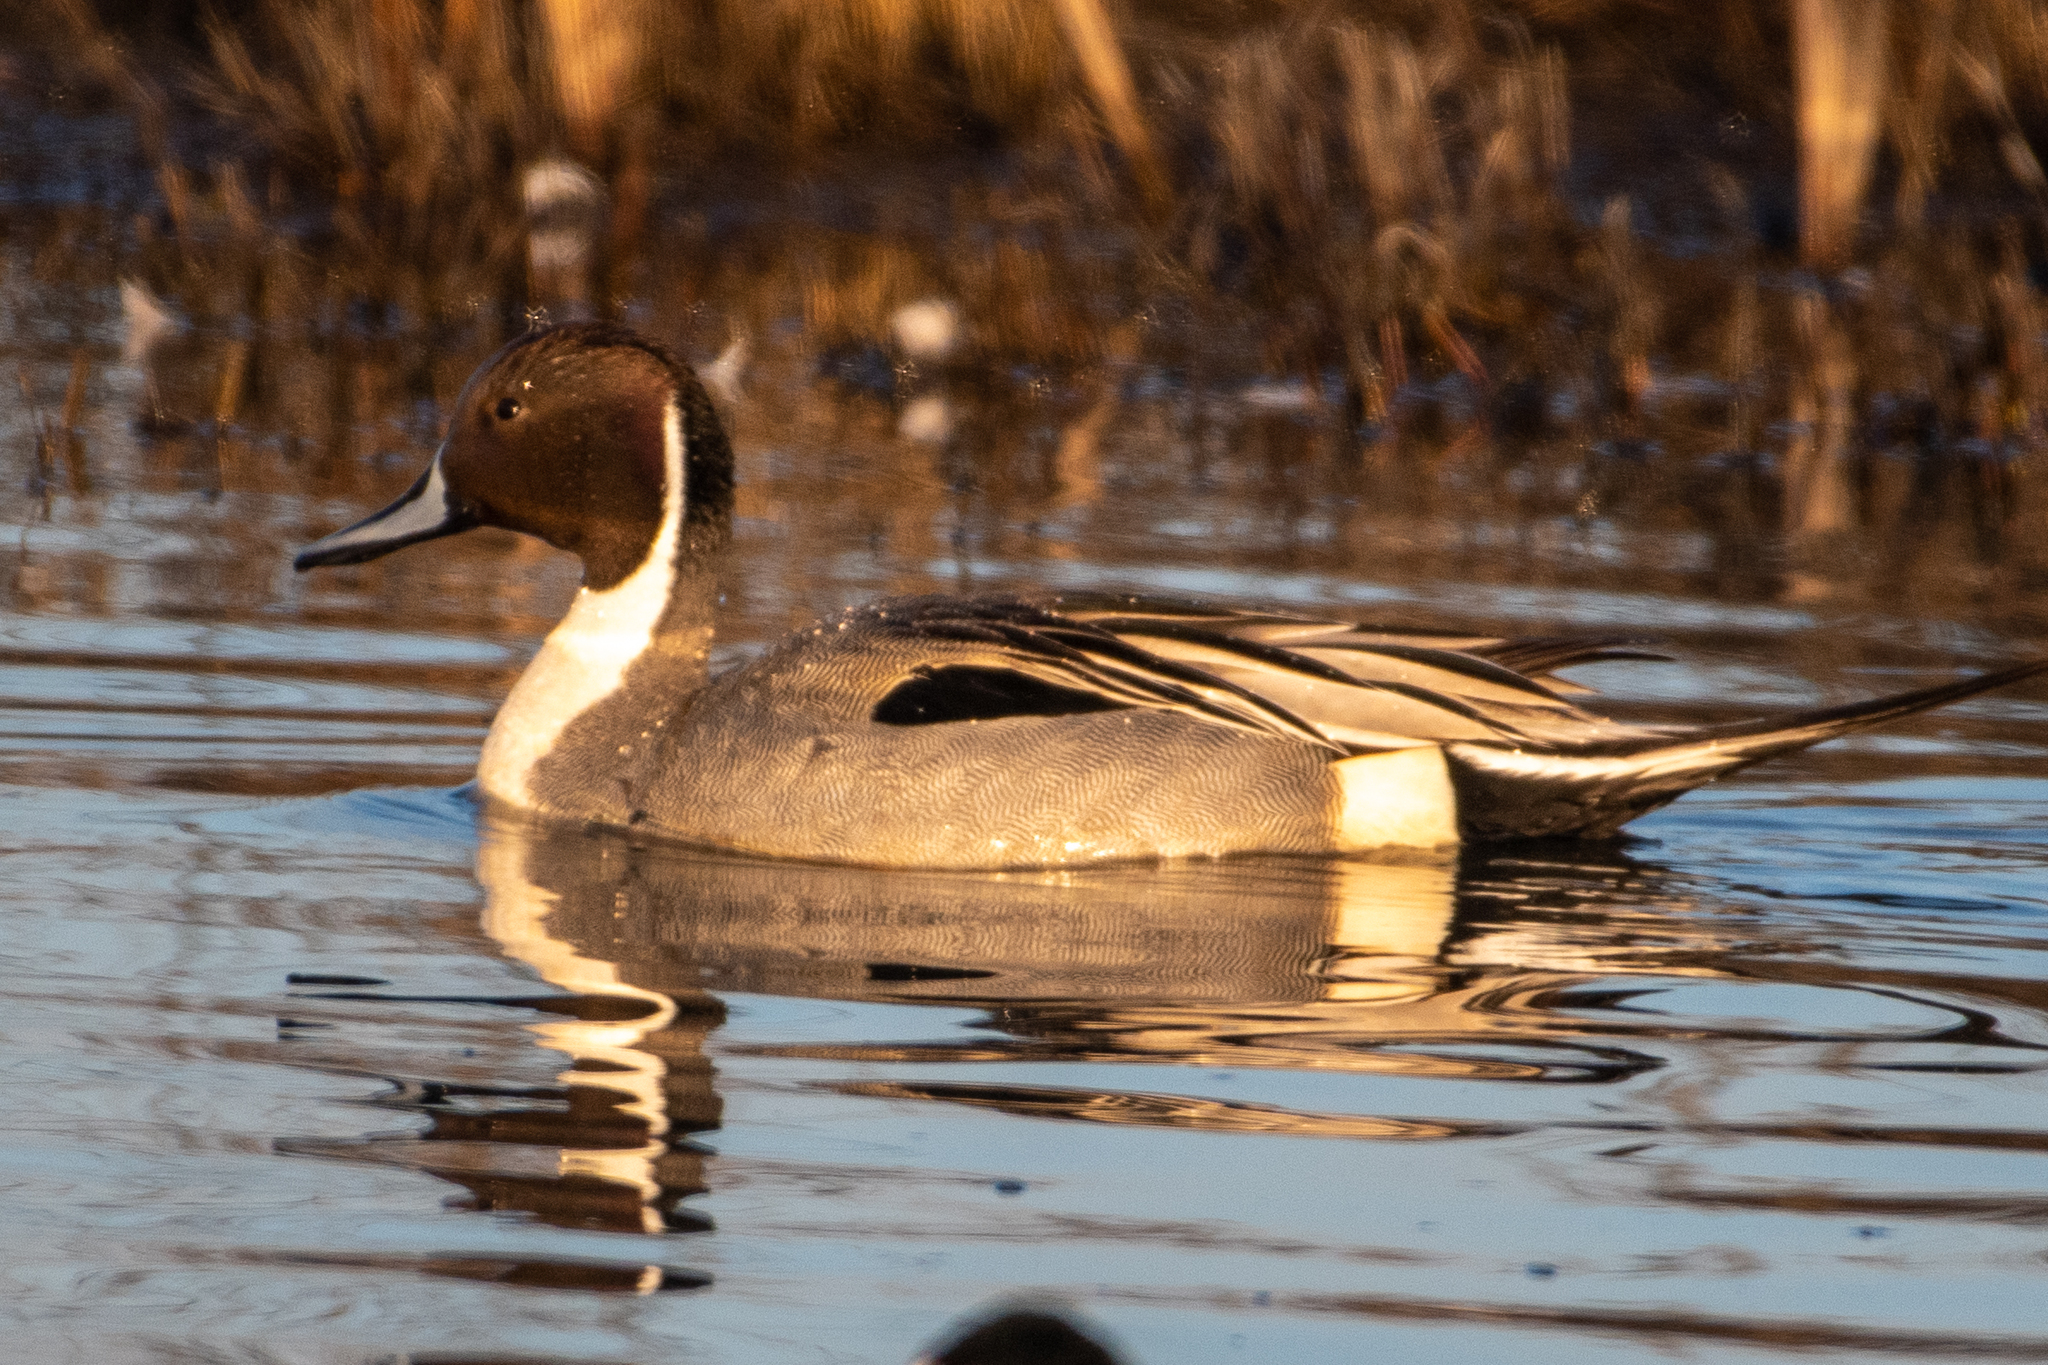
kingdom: Animalia
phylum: Chordata
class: Aves
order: Anseriformes
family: Anatidae
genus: Anas
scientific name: Anas acuta
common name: Northern pintail
